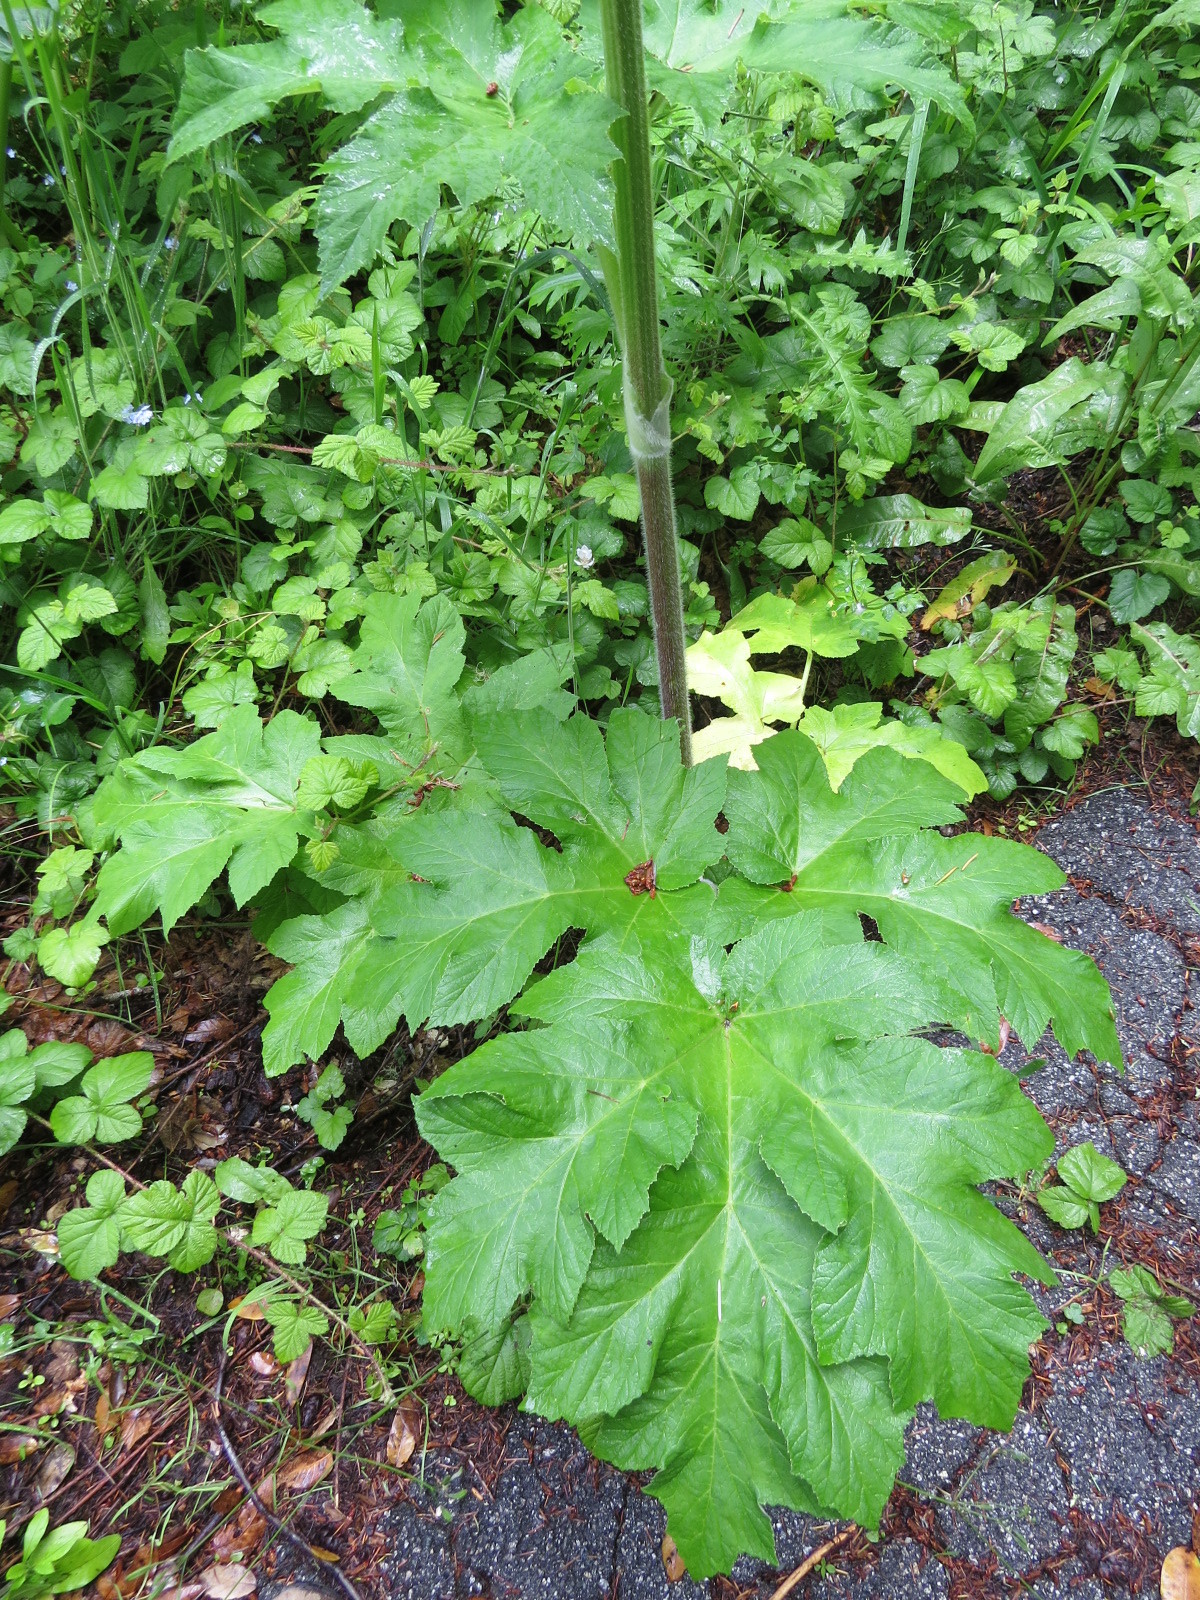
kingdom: Plantae
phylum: Tracheophyta
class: Magnoliopsida
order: Apiales
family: Apiaceae
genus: Heracleum
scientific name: Heracleum maximum
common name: American cow parsnip
